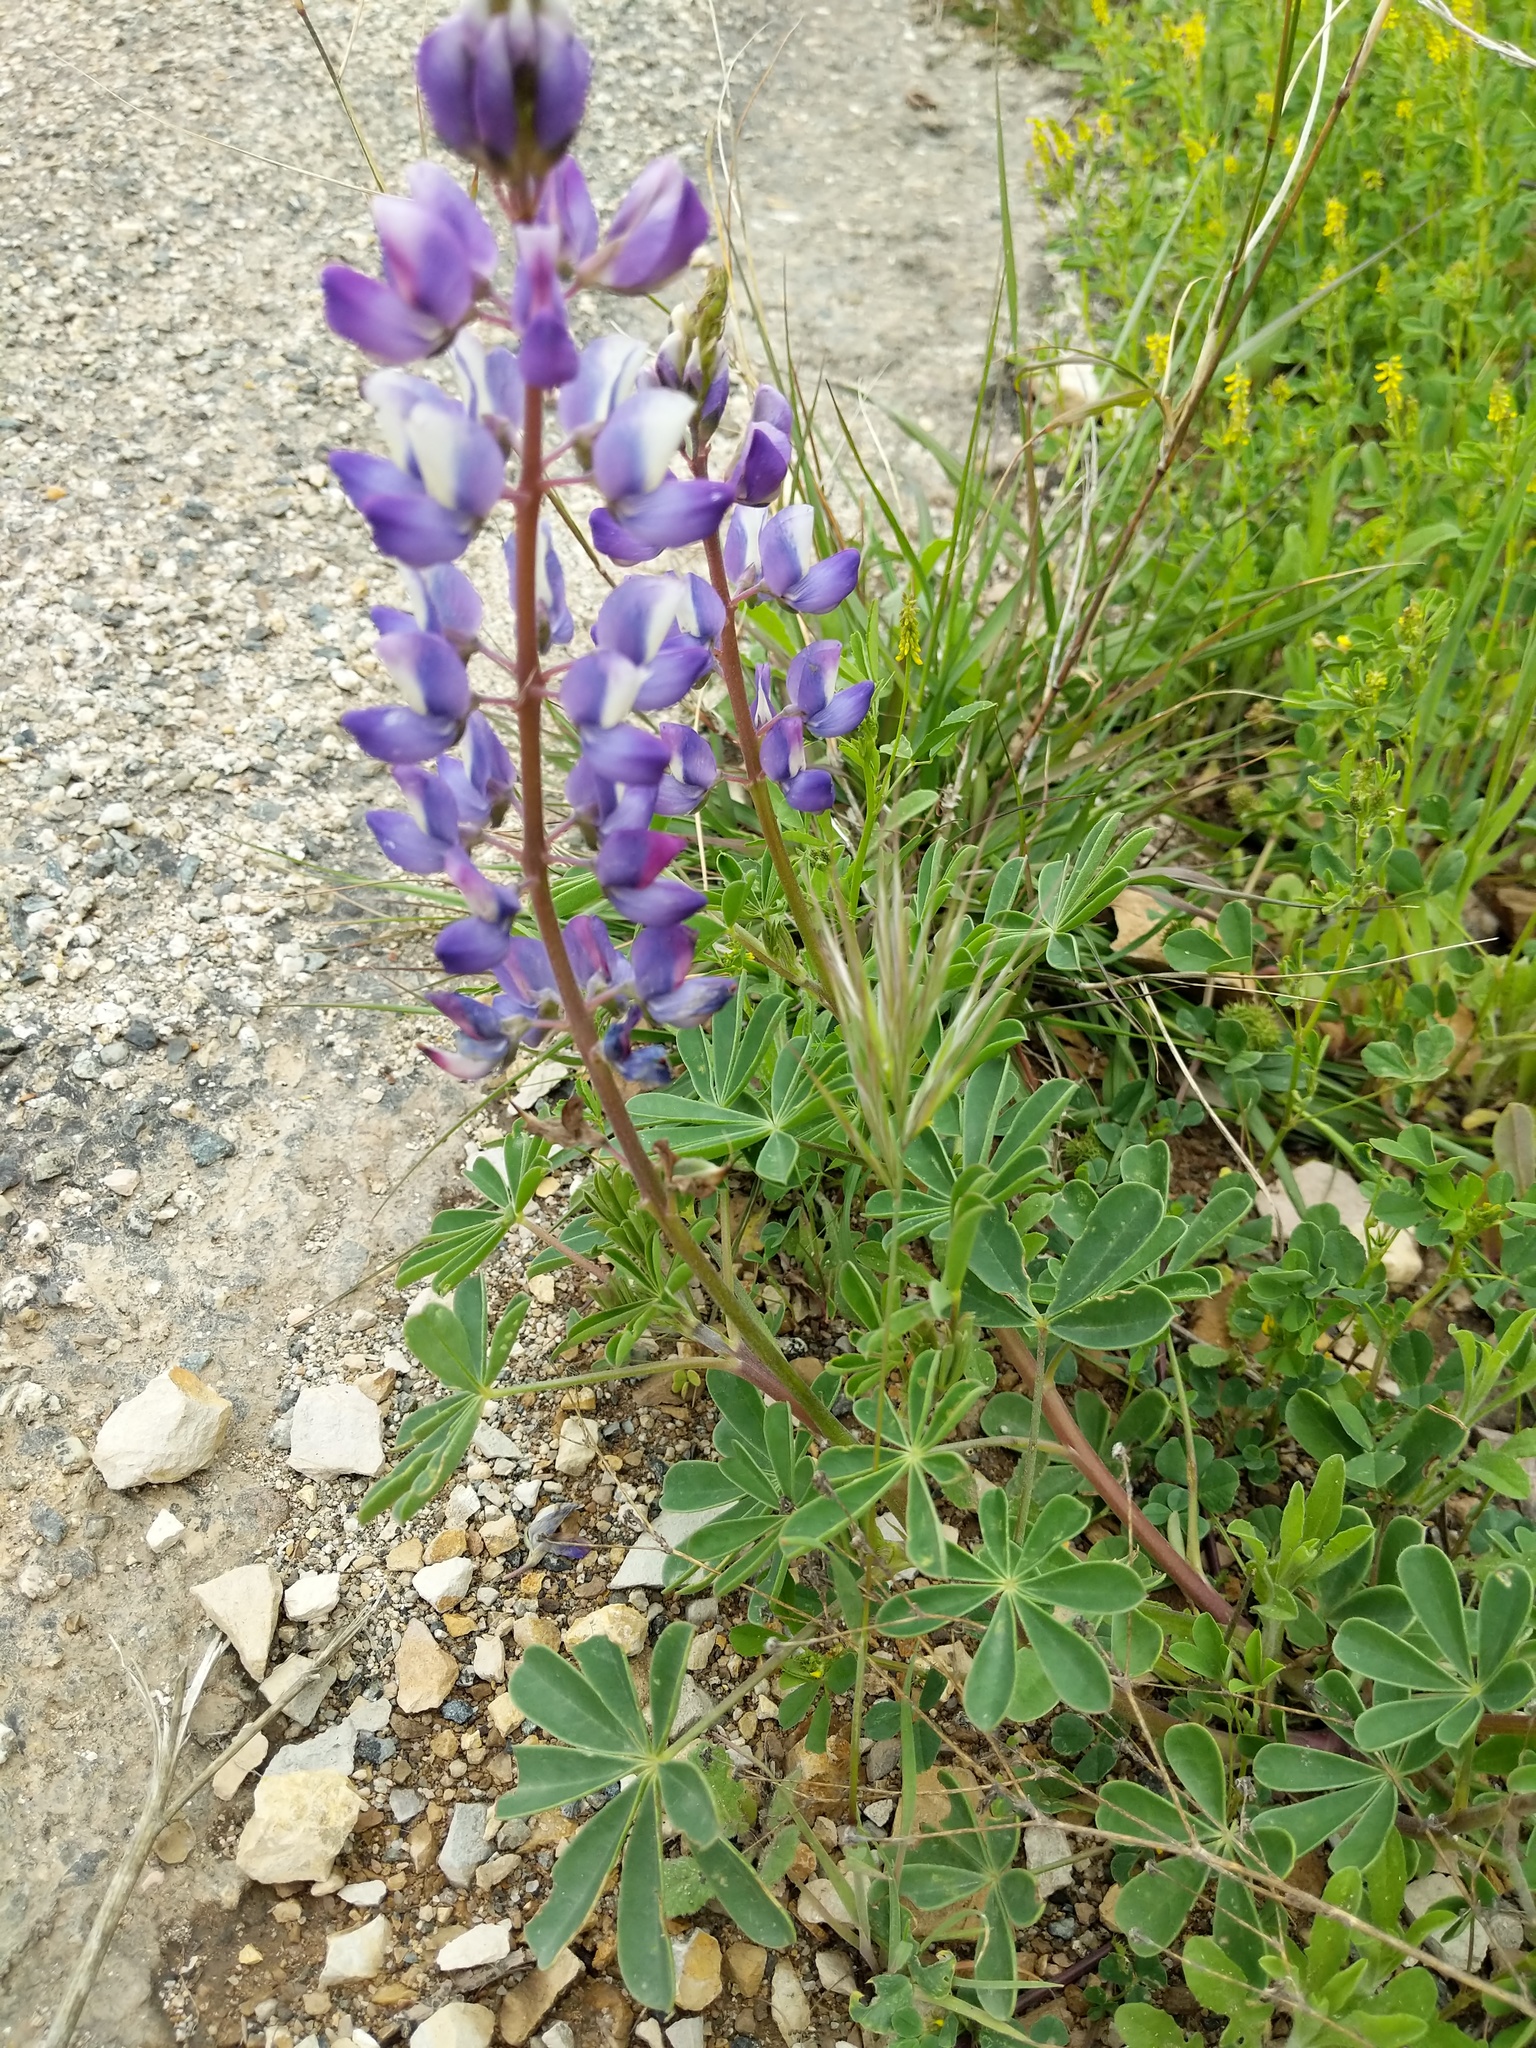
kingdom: Plantae
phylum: Tracheophyta
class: Magnoliopsida
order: Fabales
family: Fabaceae
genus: Lupinus
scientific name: Lupinus succulentus
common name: Arroyo lupine
